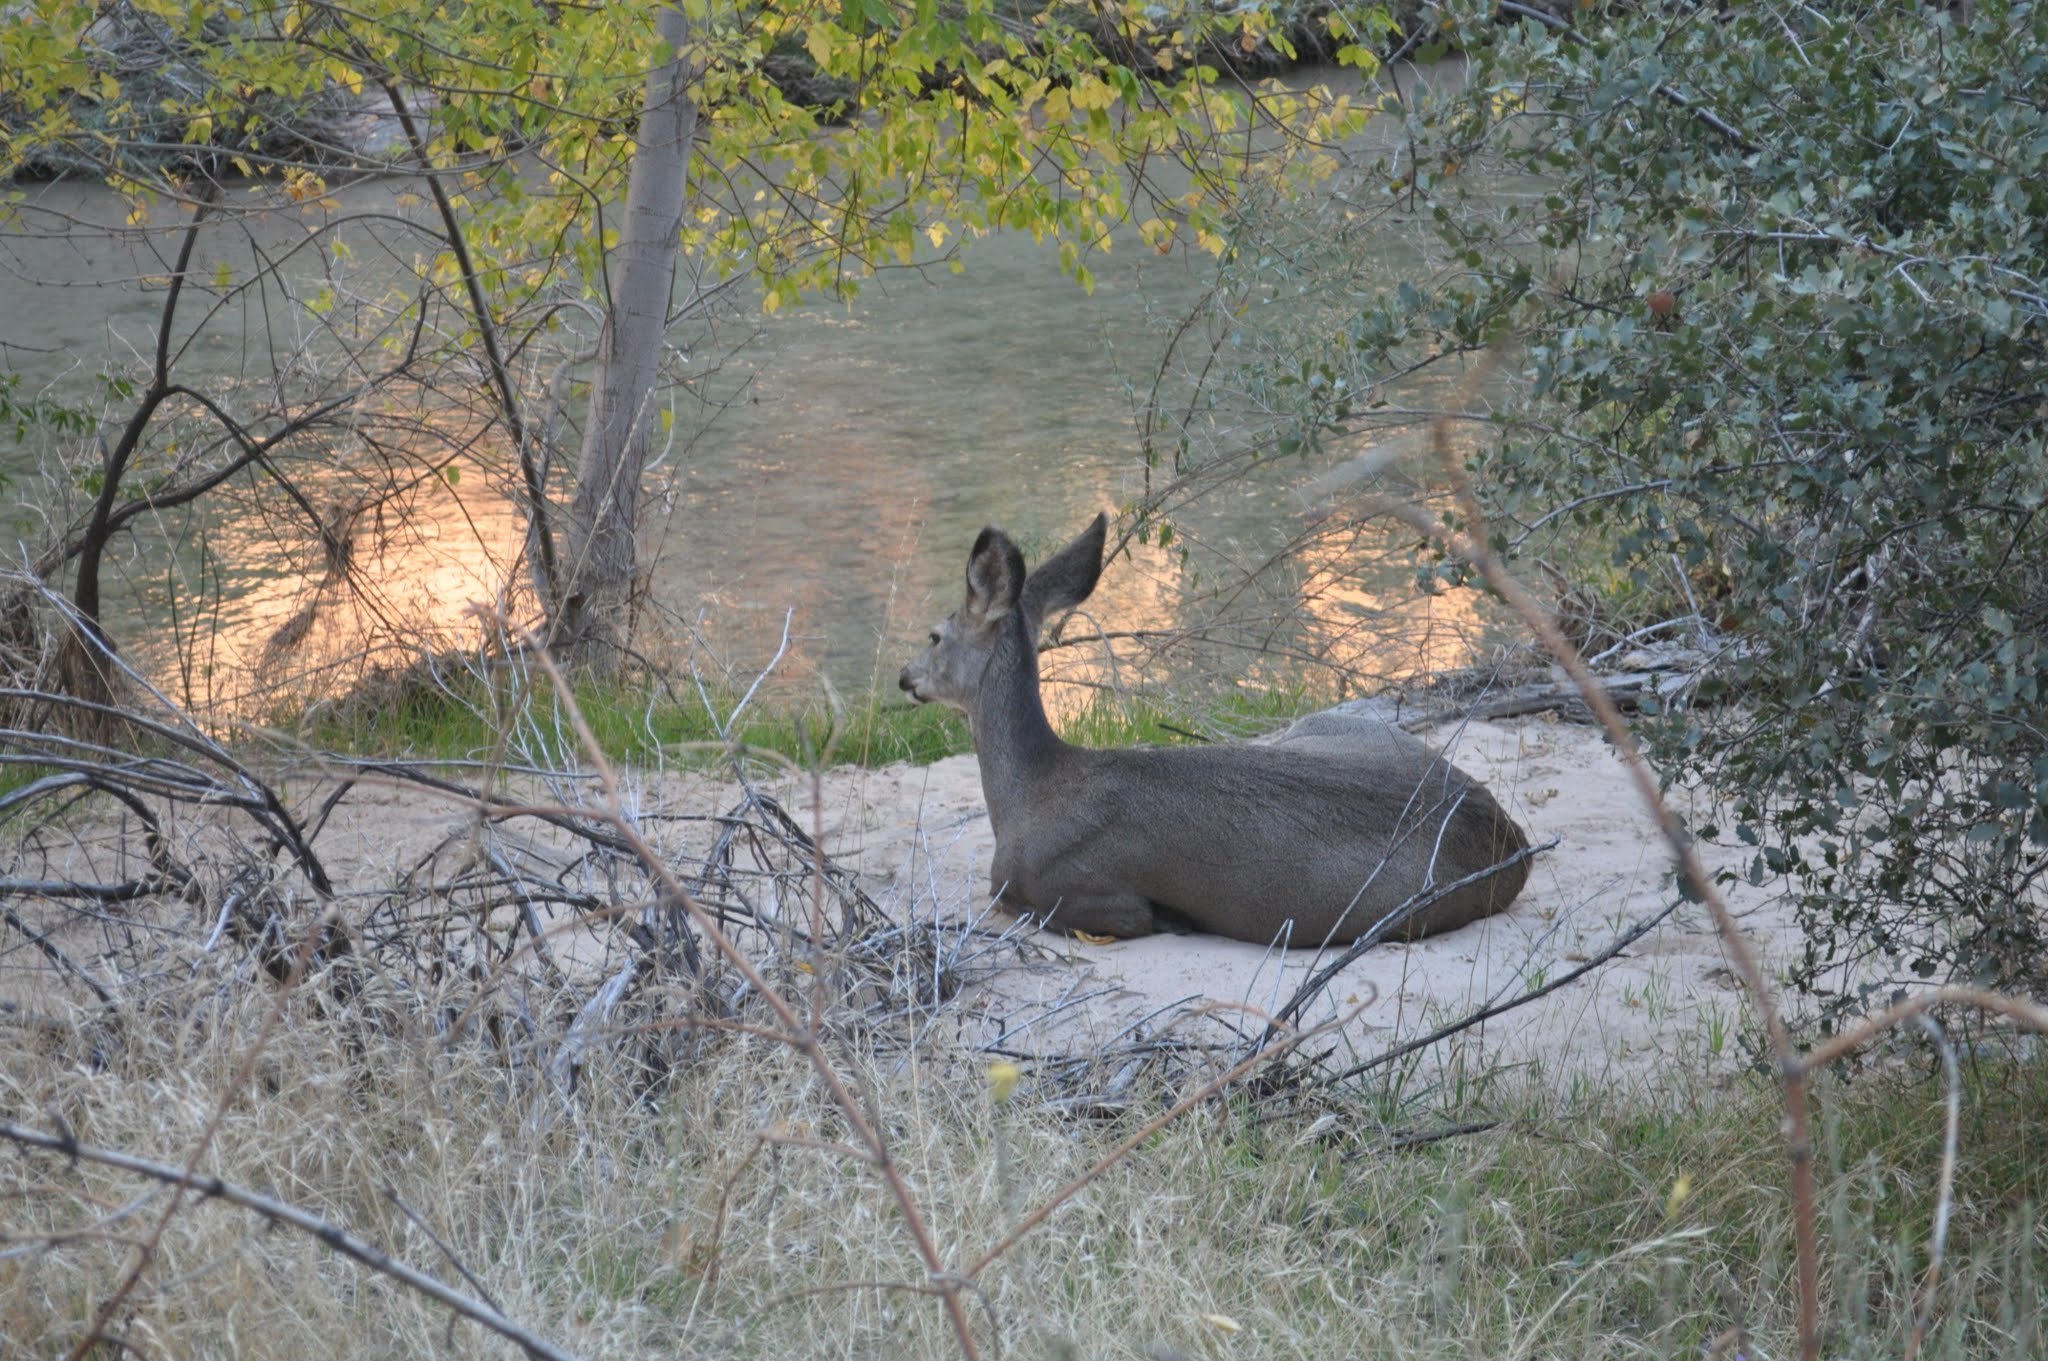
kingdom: Animalia
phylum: Chordata
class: Mammalia
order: Artiodactyla
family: Cervidae
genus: Odocoileus
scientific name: Odocoileus hemionus
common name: Mule deer
